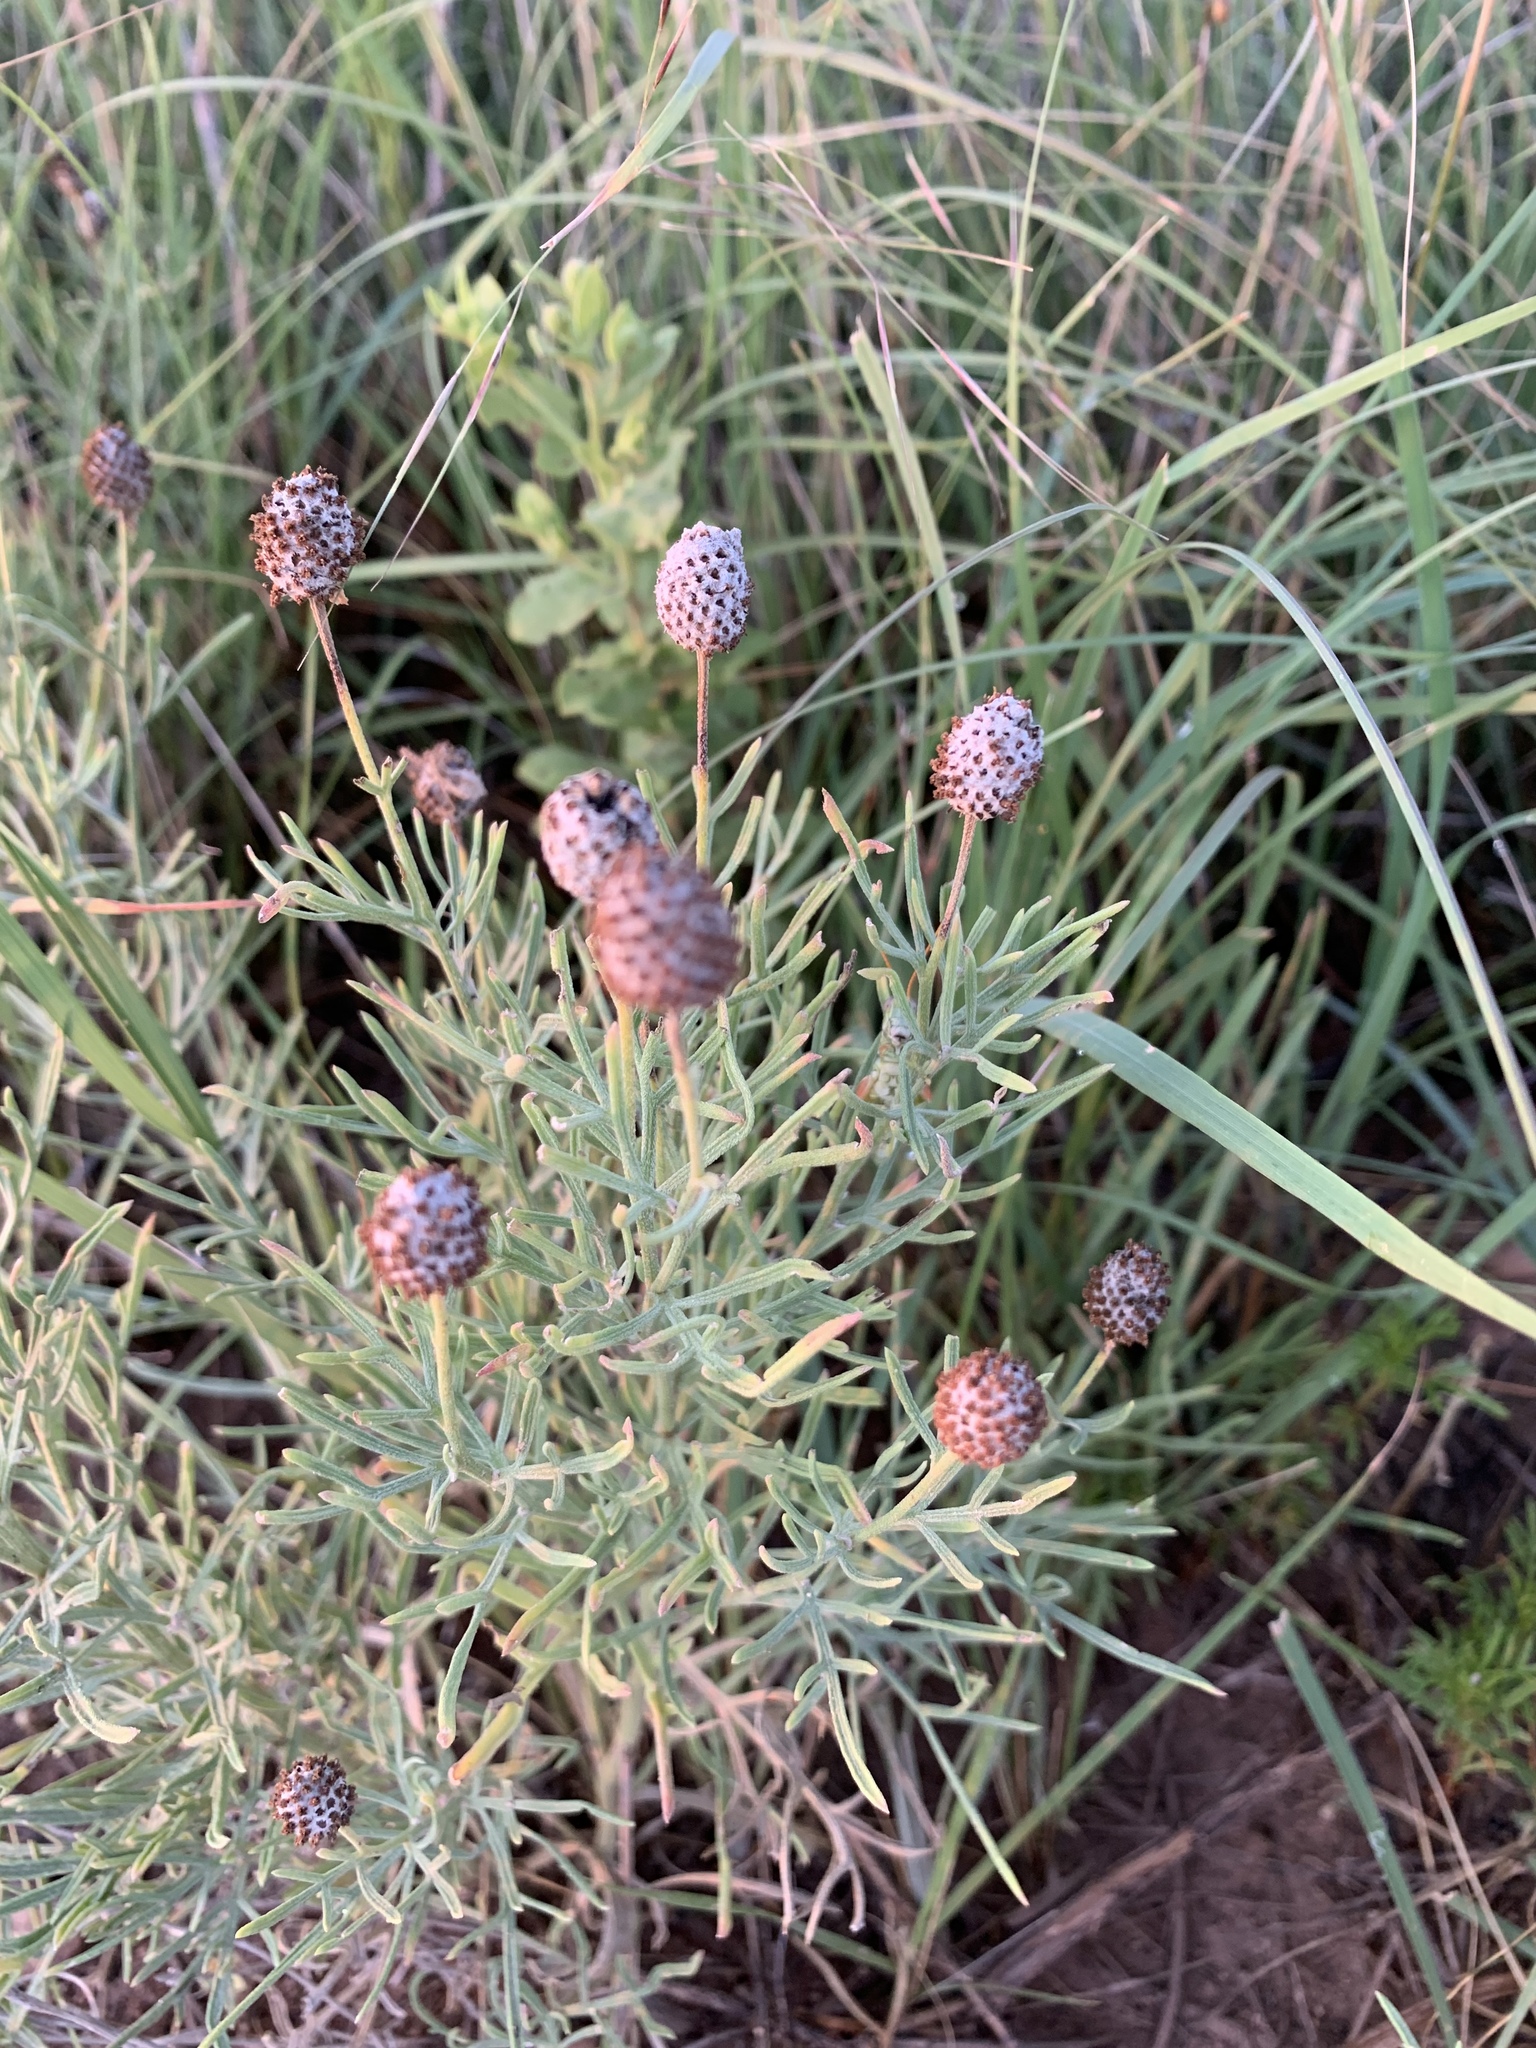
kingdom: Plantae
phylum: Tracheophyta
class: Magnoliopsida
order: Asterales
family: Asteraceae
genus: Ratibida
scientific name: Ratibida tagetes
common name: Green mexican-hat
